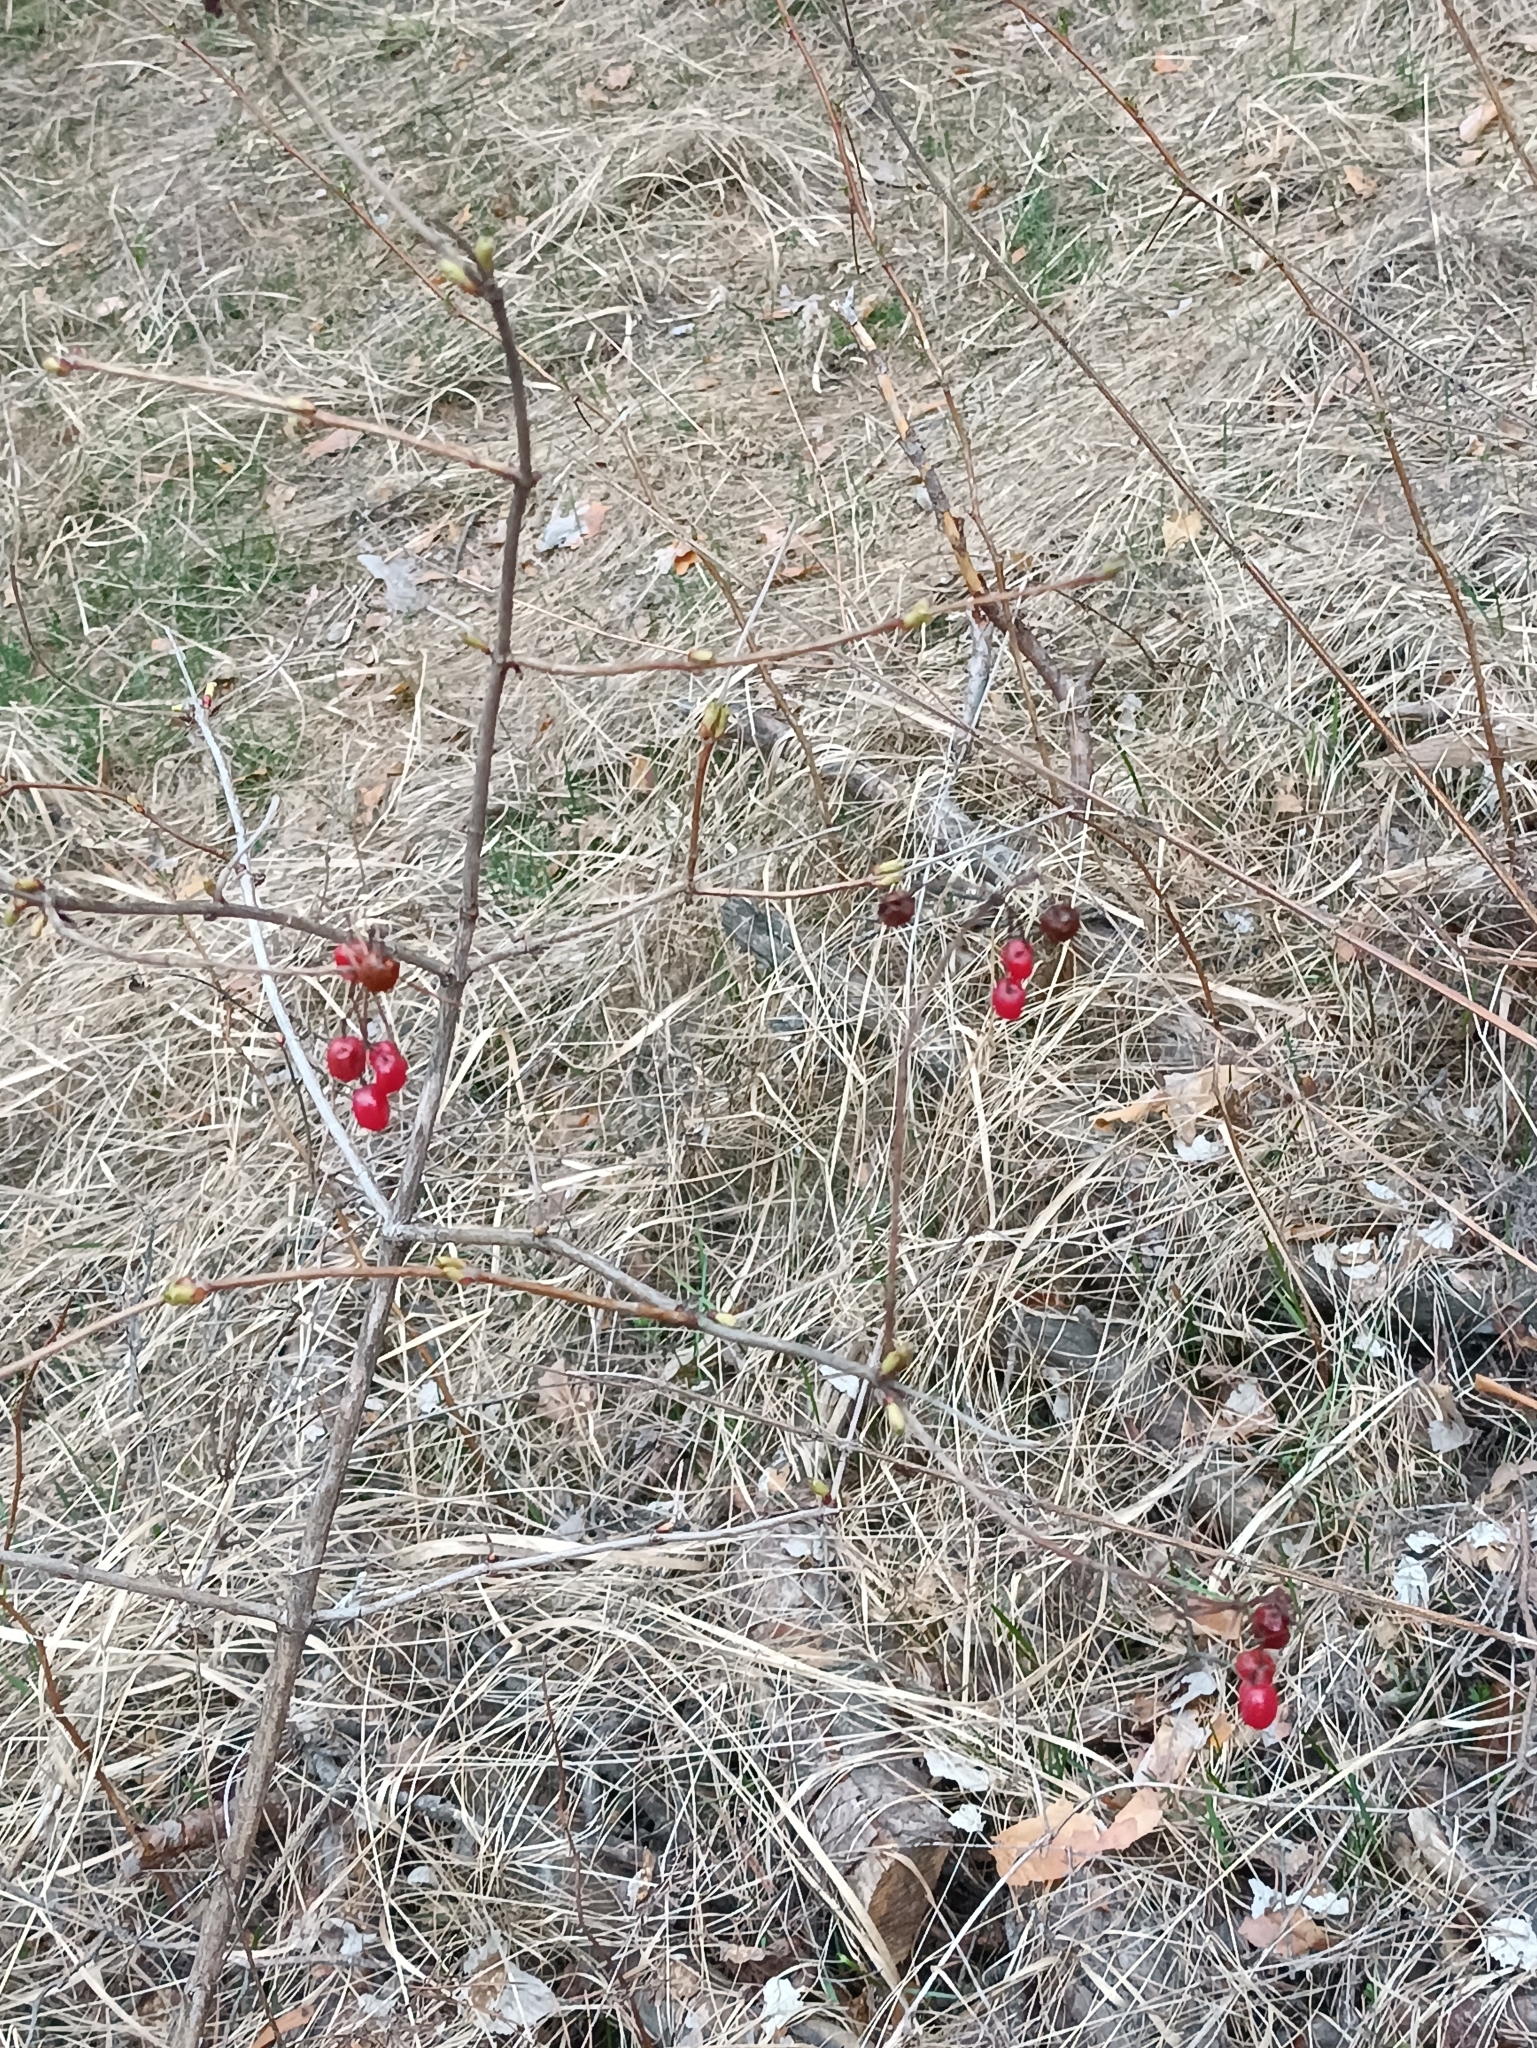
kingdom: Plantae
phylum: Tracheophyta
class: Magnoliopsida
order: Dipsacales
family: Viburnaceae
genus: Viburnum
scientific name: Viburnum opulus
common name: Guelder-rose
